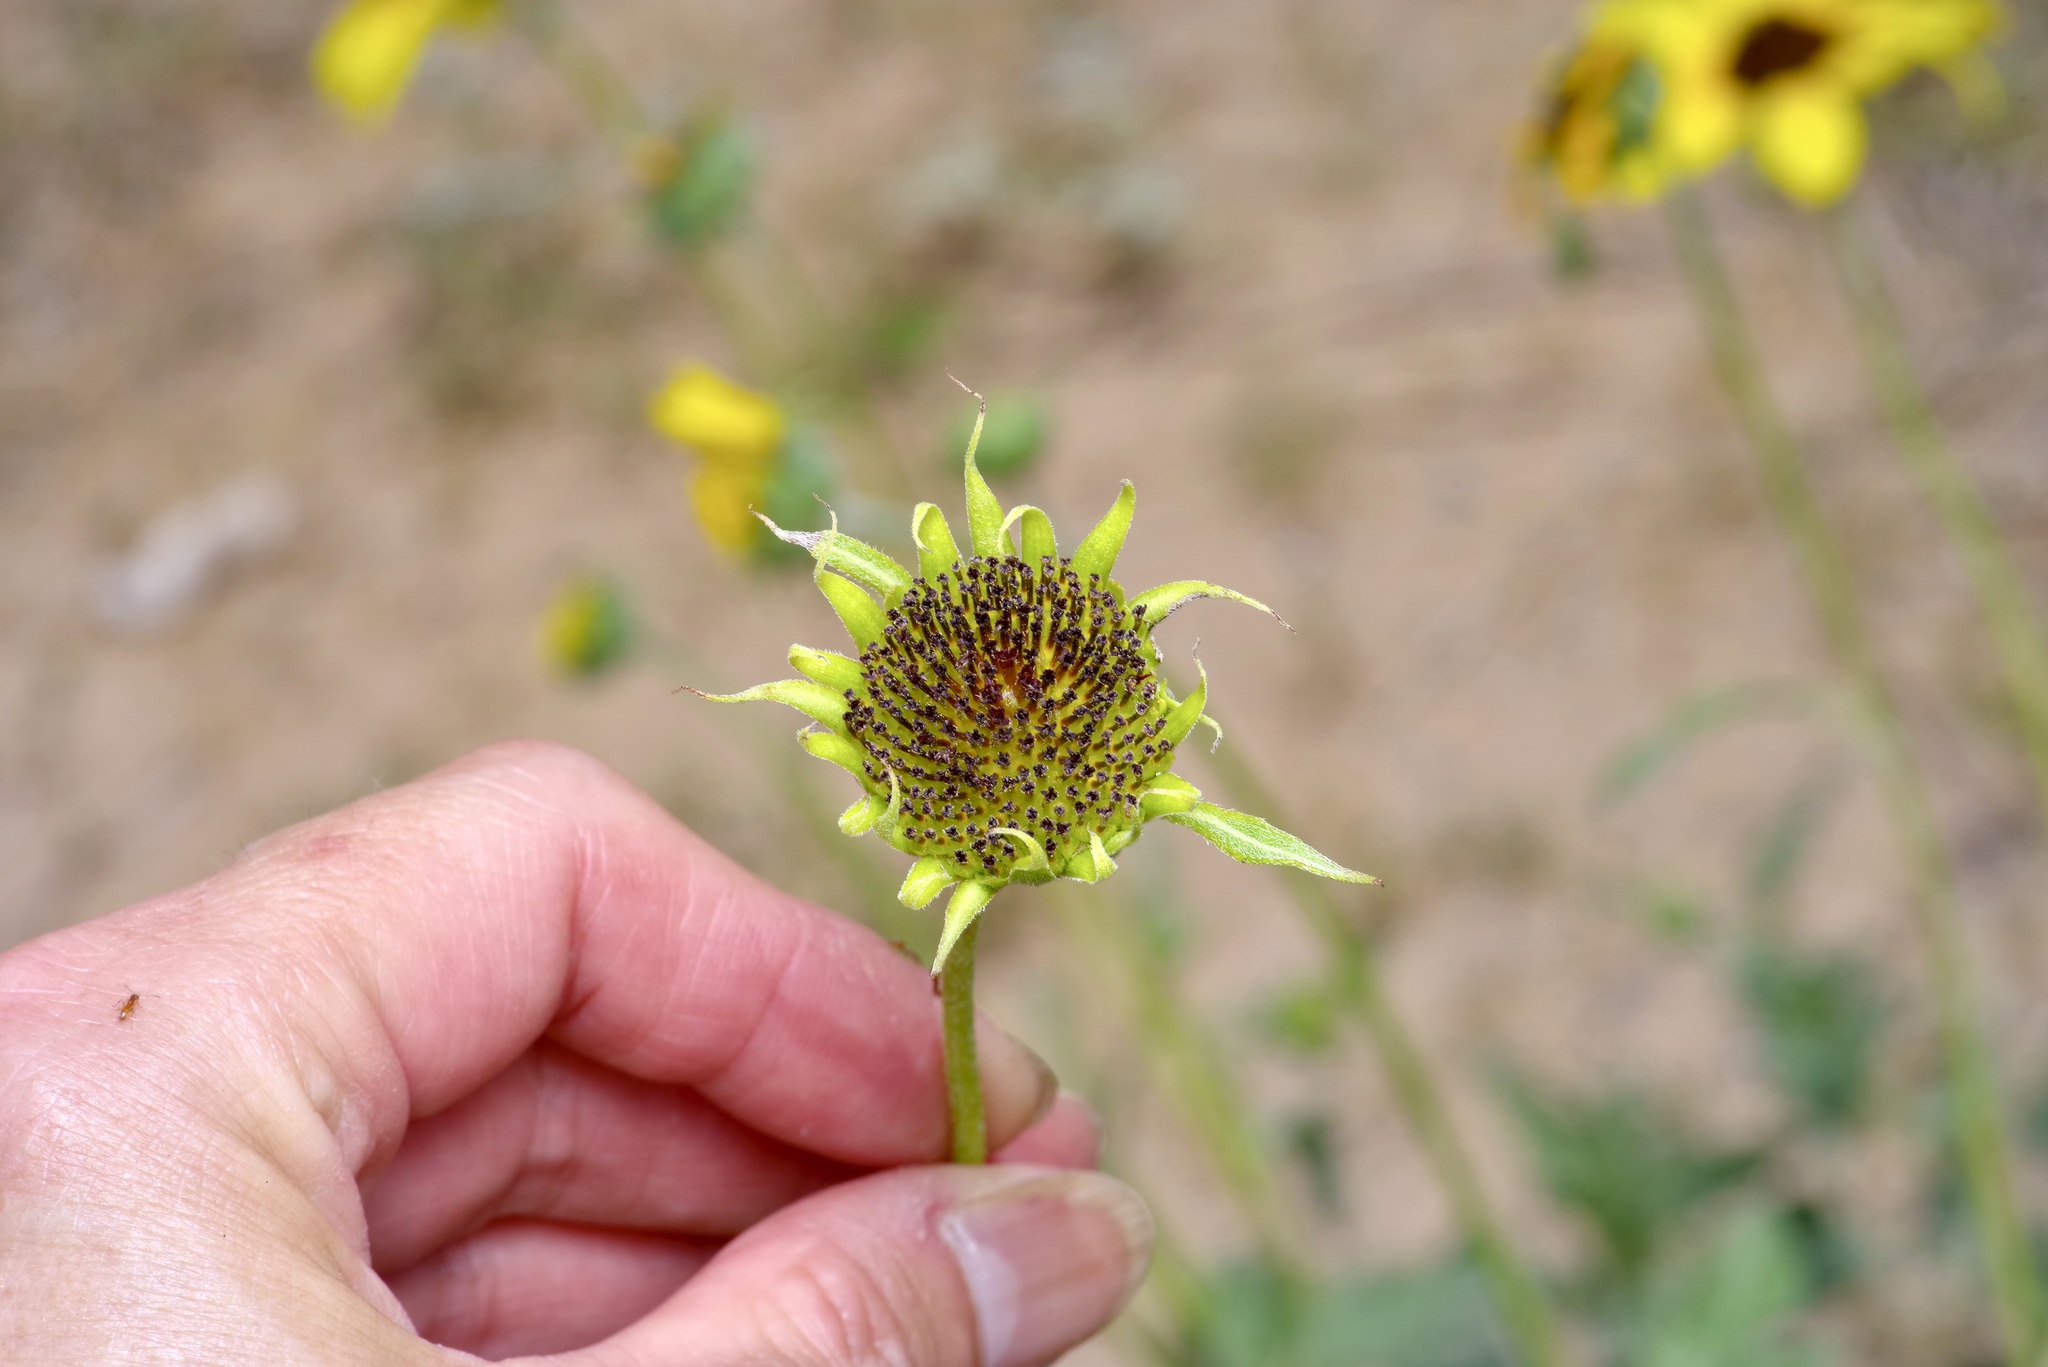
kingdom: Plantae
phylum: Tracheophyta
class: Magnoliopsida
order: Asterales
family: Asteraceae
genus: Helianthus
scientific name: Helianthus petiolaris
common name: Lesser sunflower
